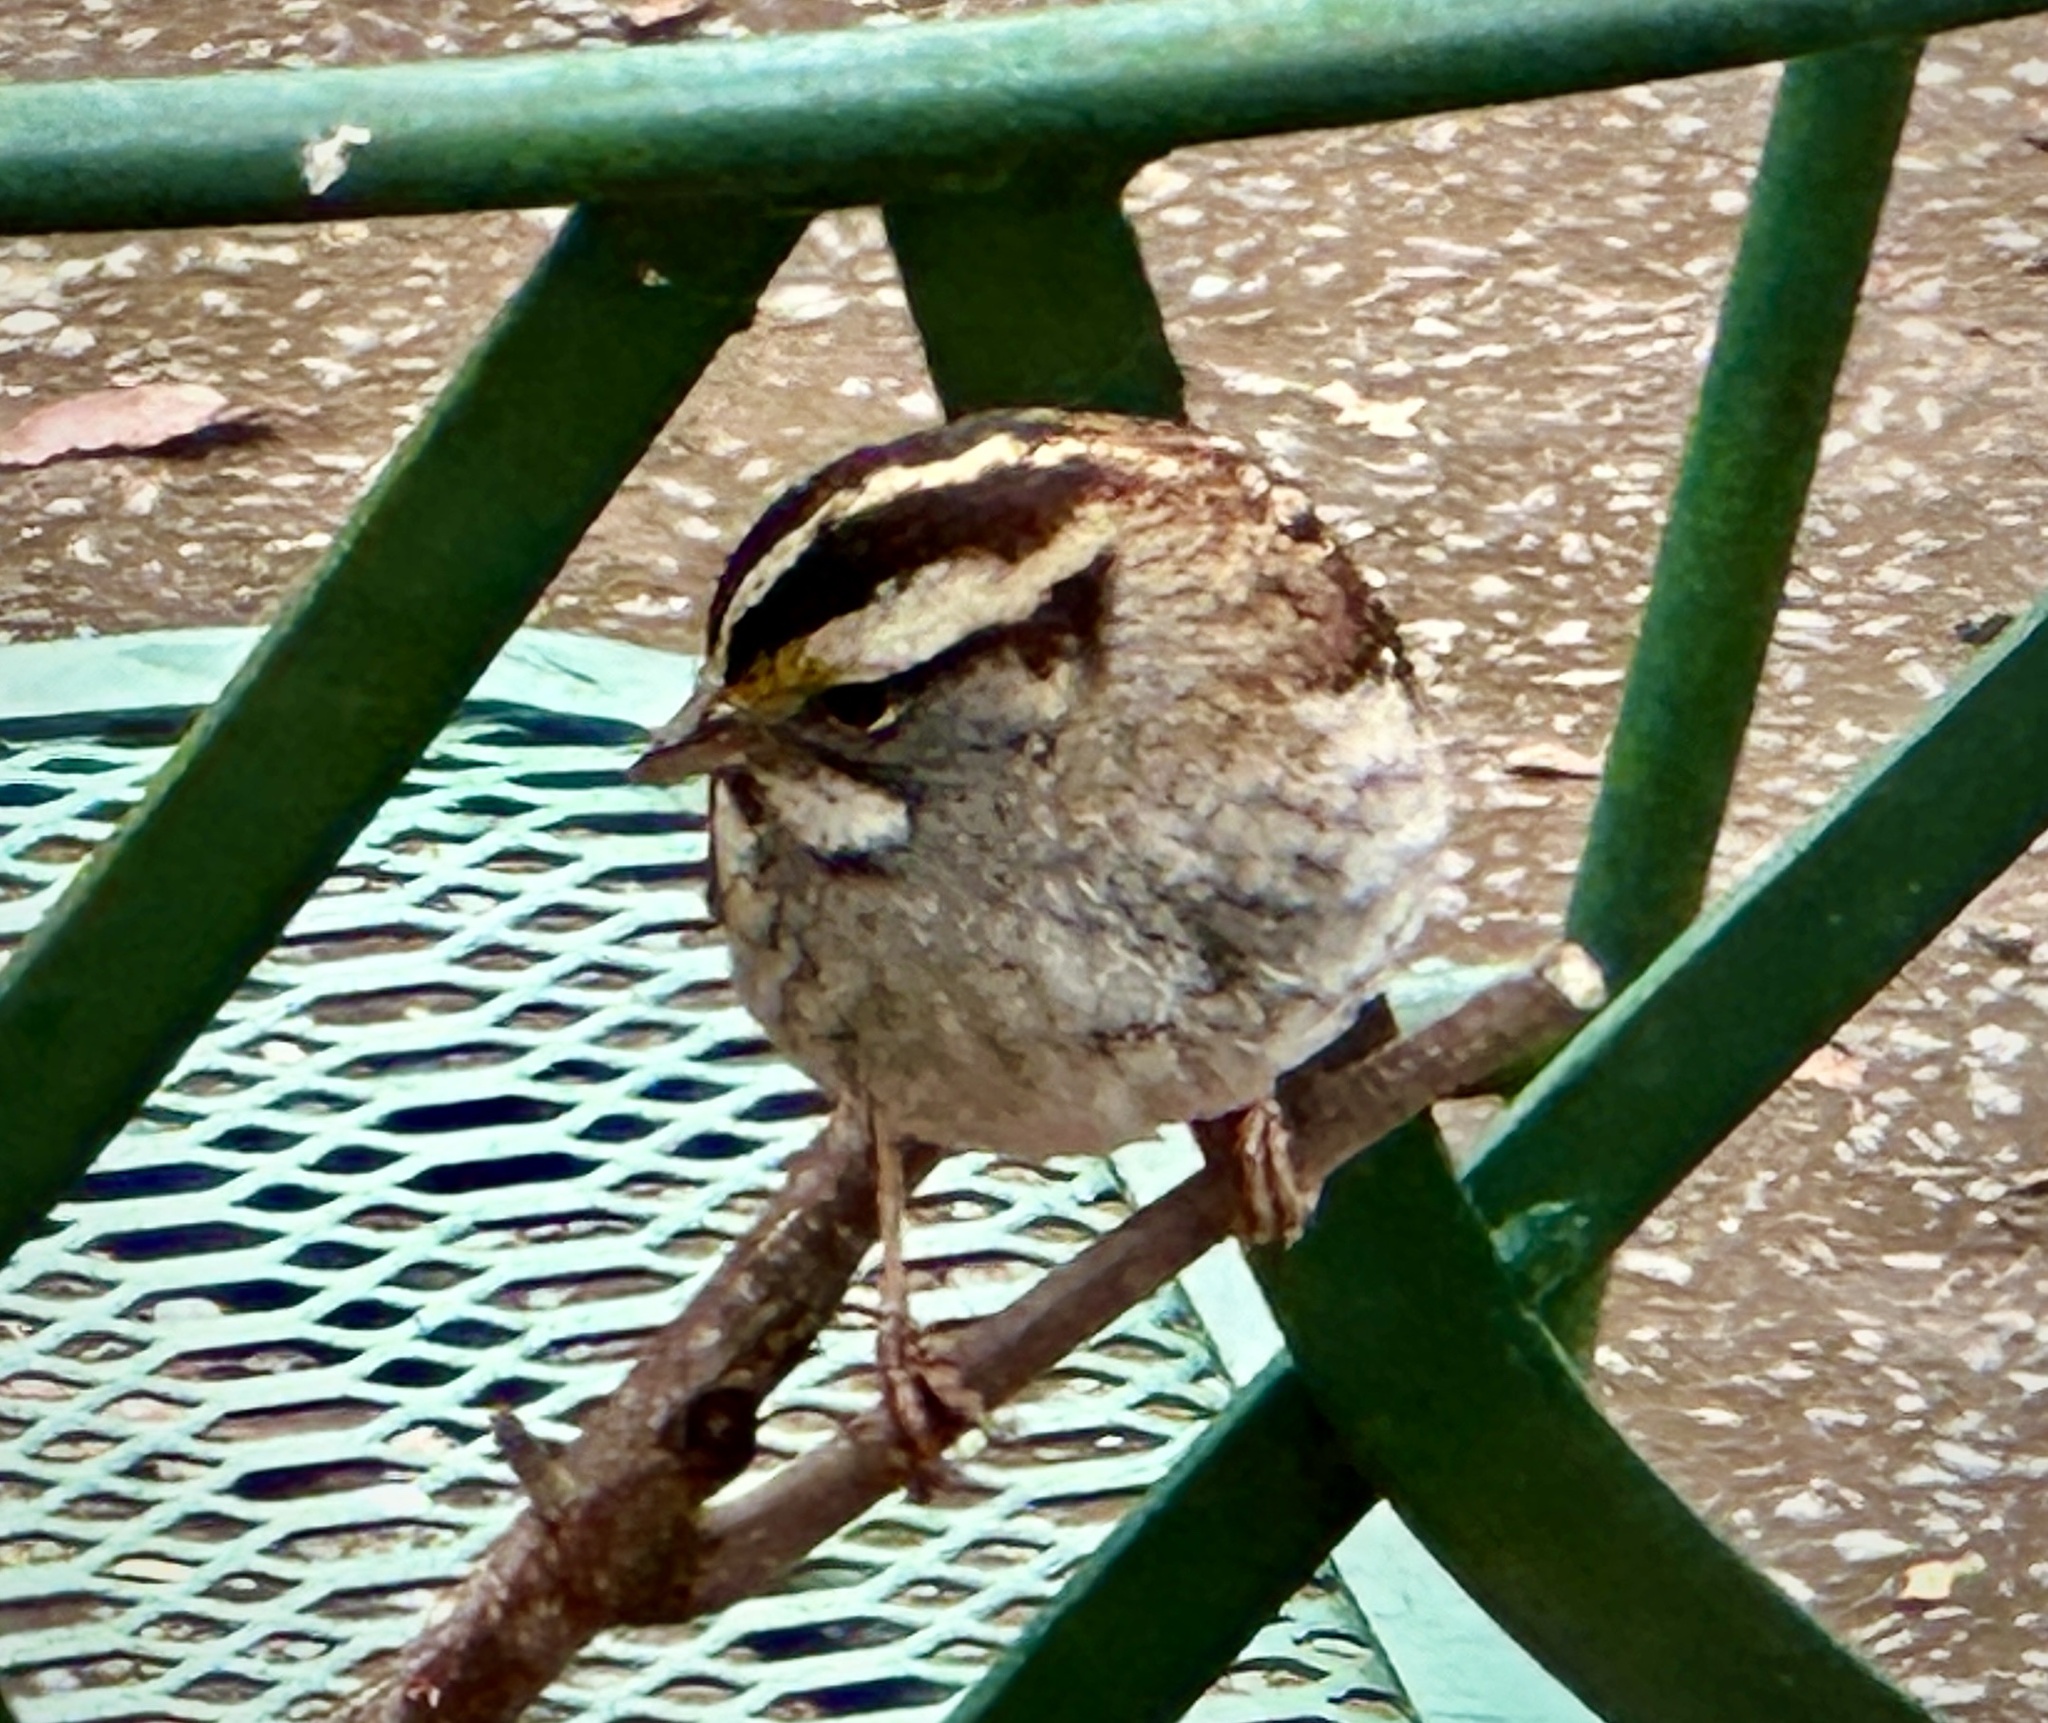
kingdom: Animalia
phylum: Chordata
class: Aves
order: Passeriformes
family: Passerellidae
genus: Zonotrichia
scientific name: Zonotrichia albicollis
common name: White-throated sparrow
